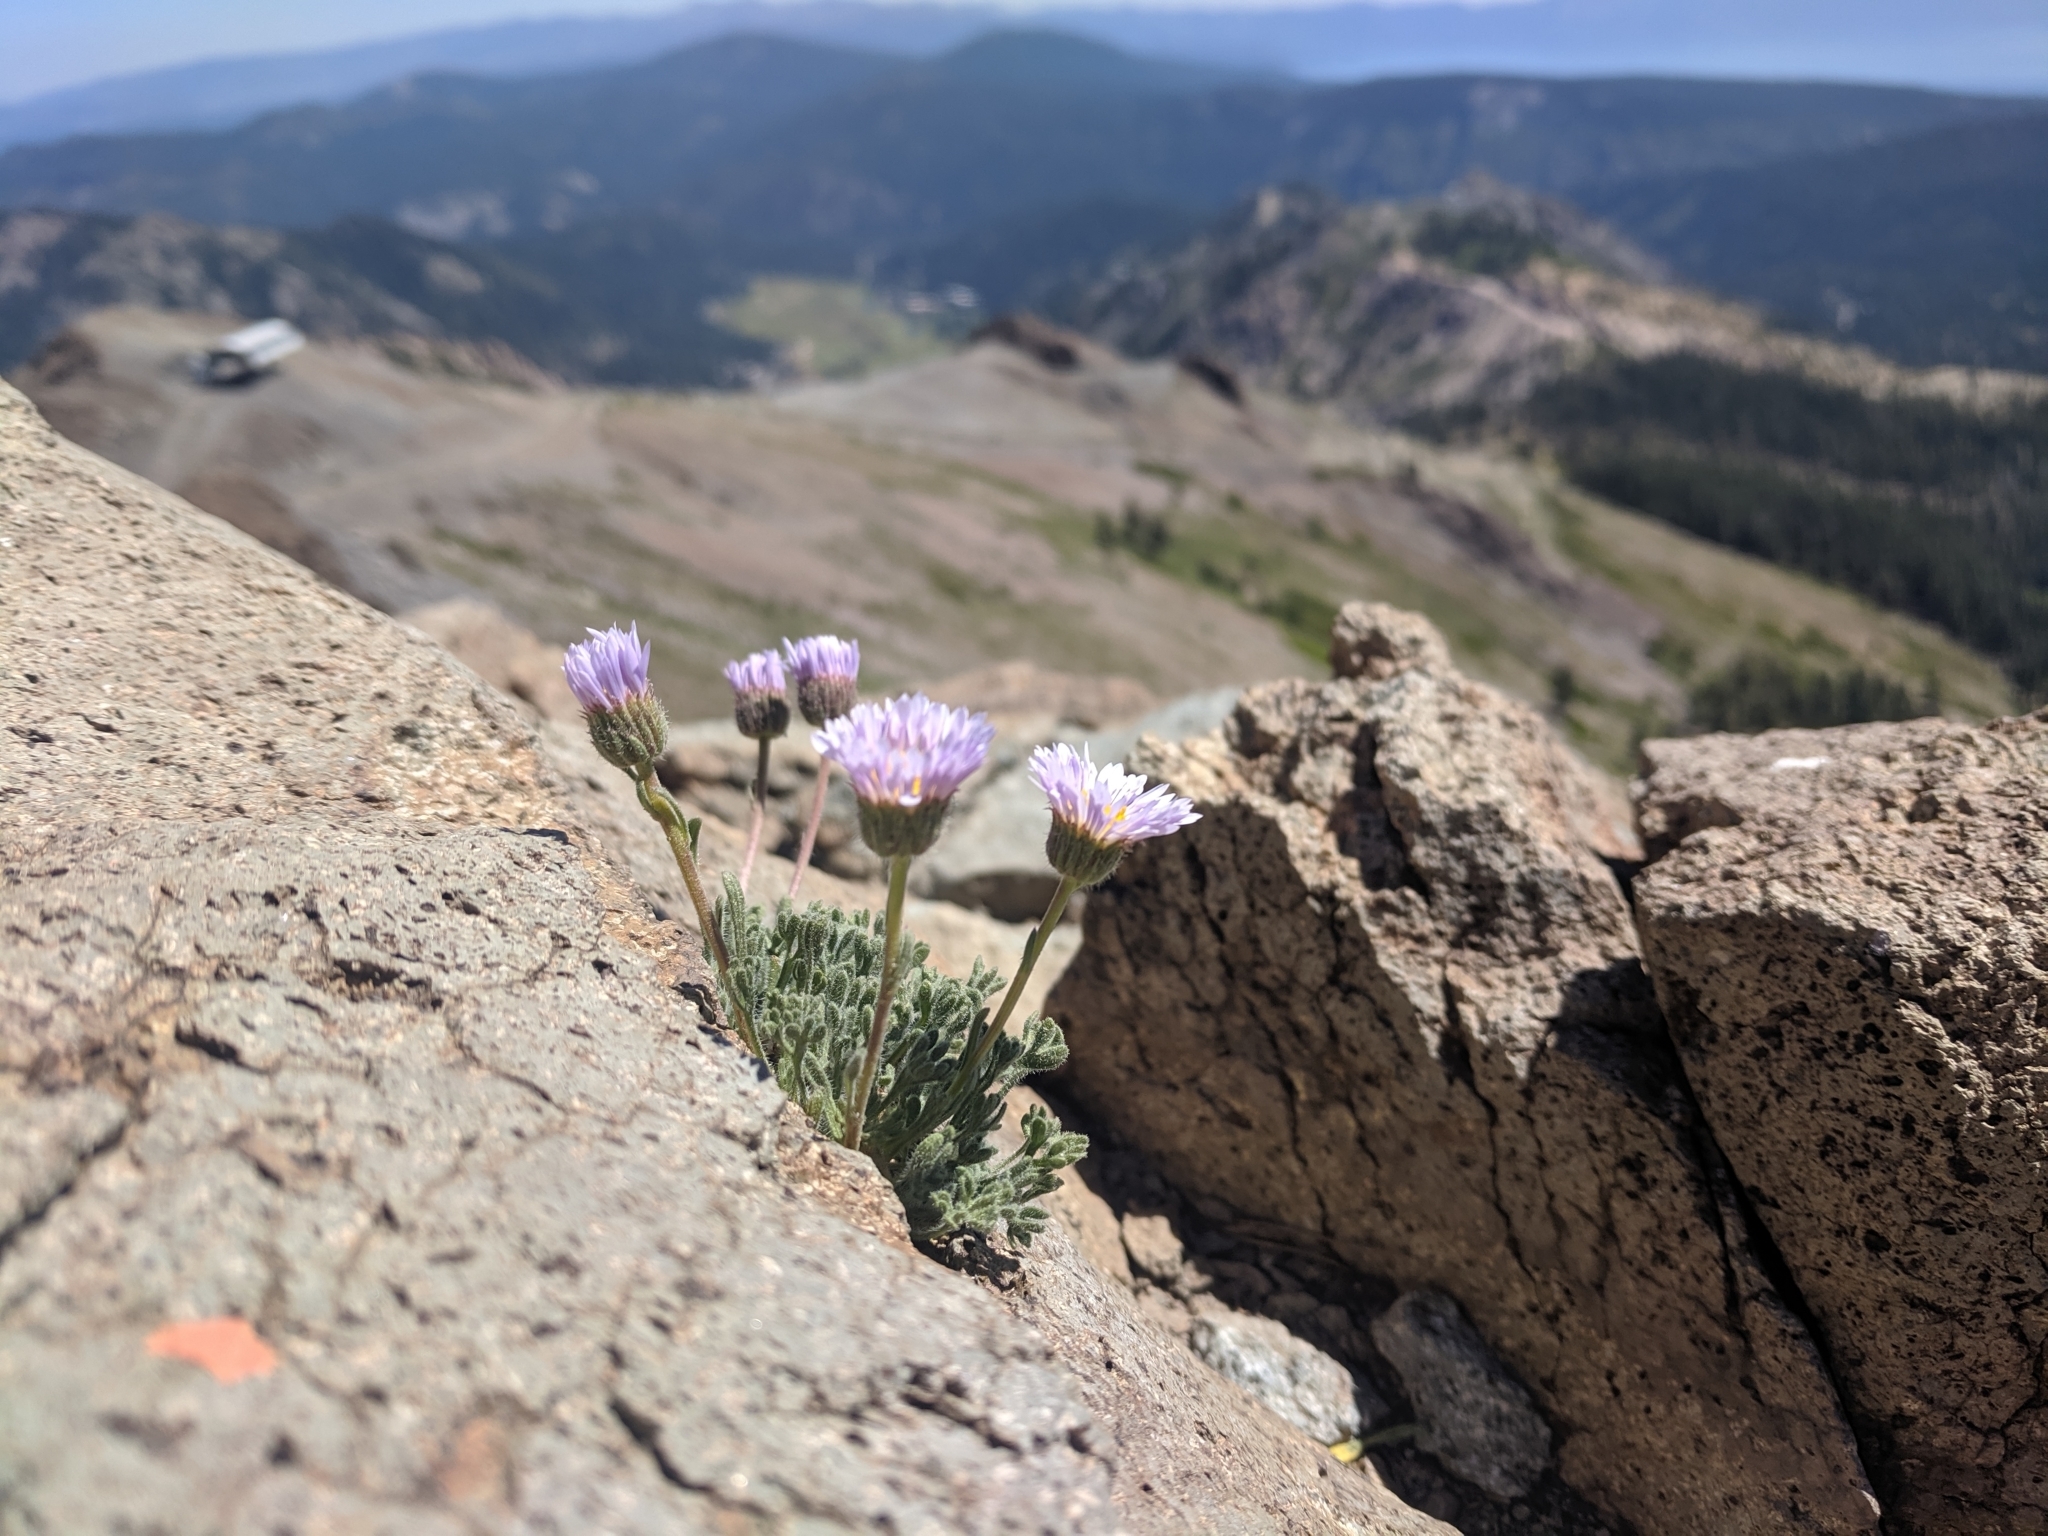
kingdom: Plantae
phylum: Tracheophyta
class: Magnoliopsida
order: Asterales
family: Asteraceae
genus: Erigeron
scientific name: Erigeron compositus
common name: Dwarf mountain fleabane
